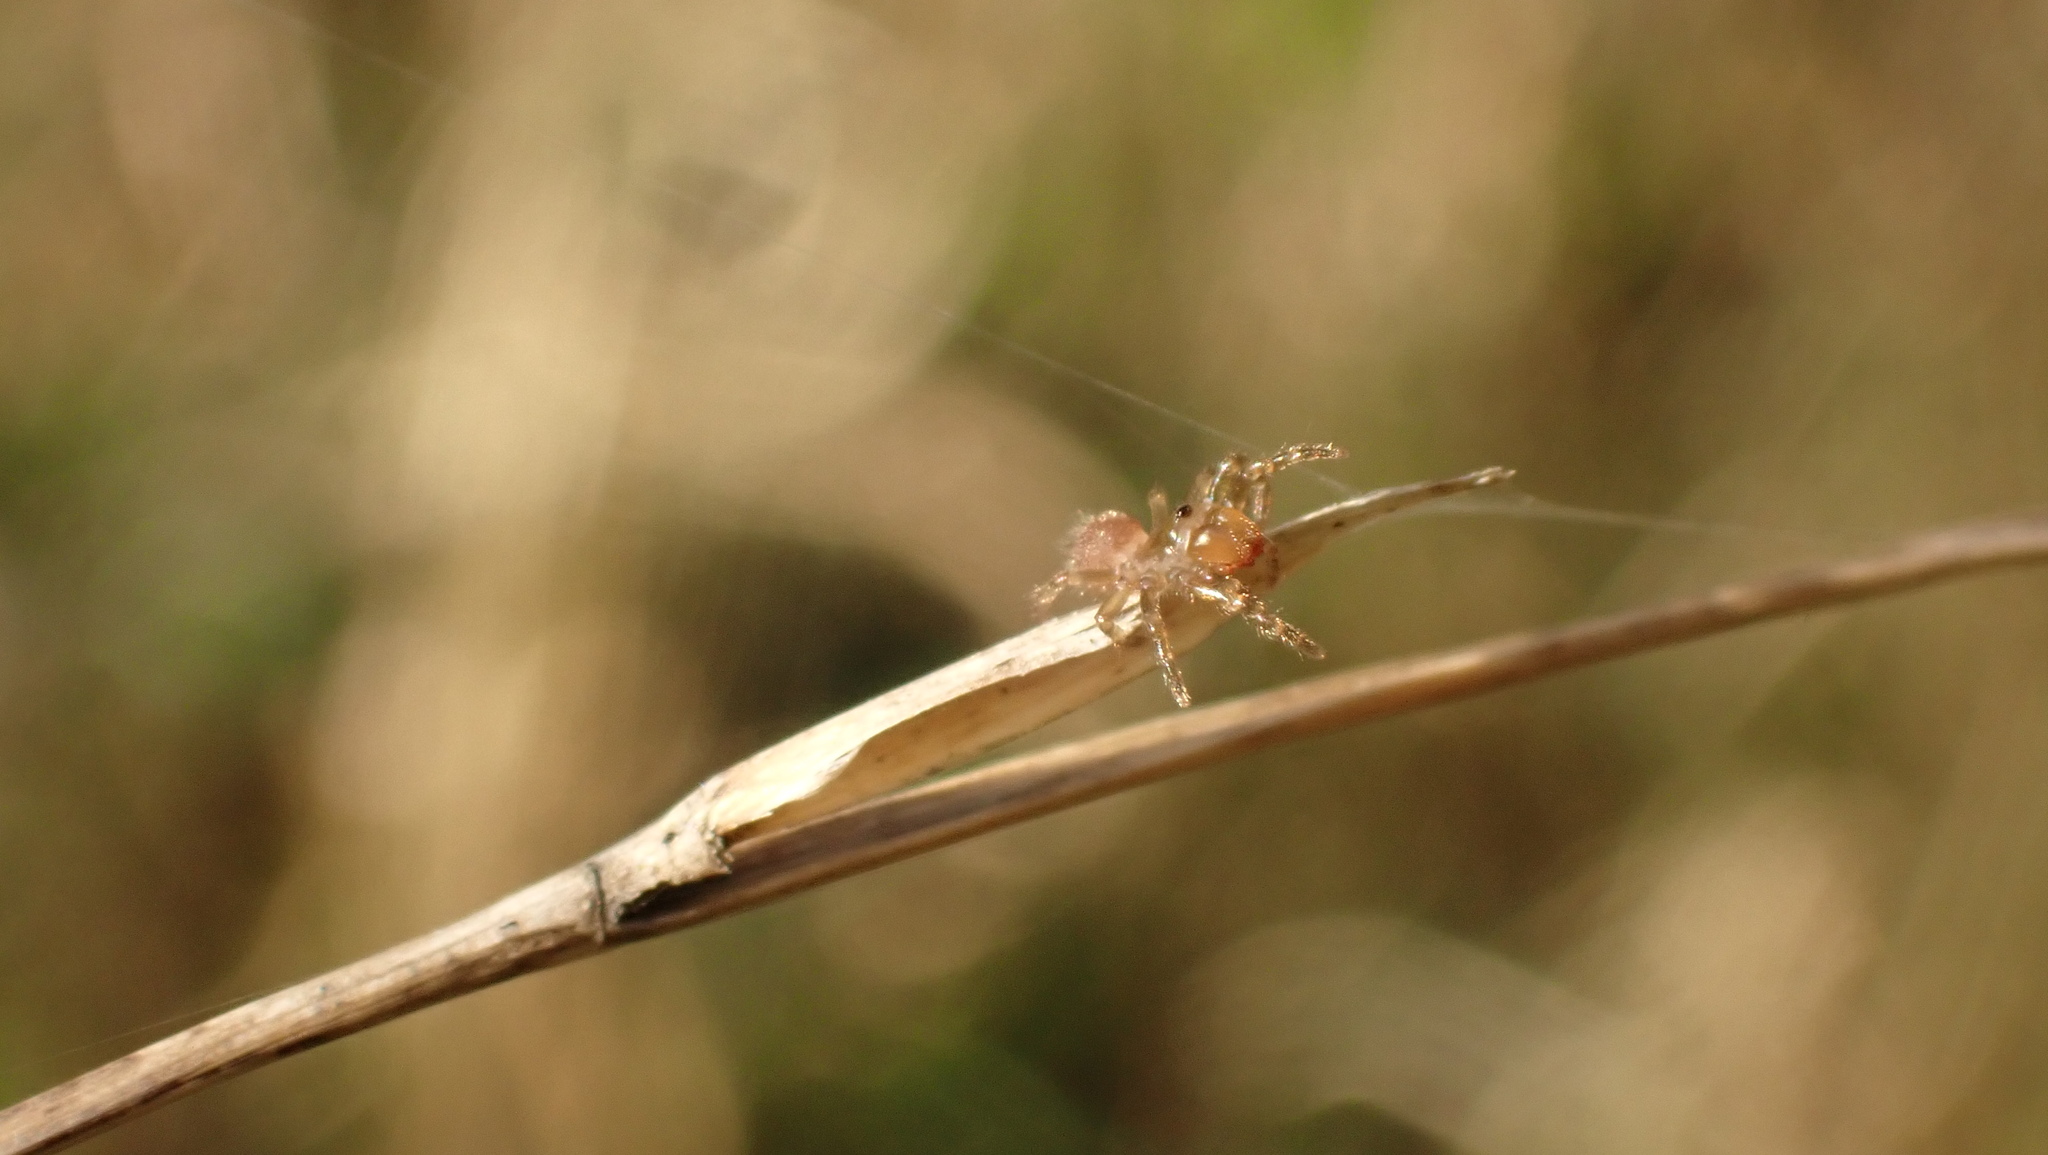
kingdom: Animalia
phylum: Arthropoda
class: Arachnida
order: Araneae
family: Atypidae
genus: Atypus
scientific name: Atypus affinis
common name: Purse web spider
